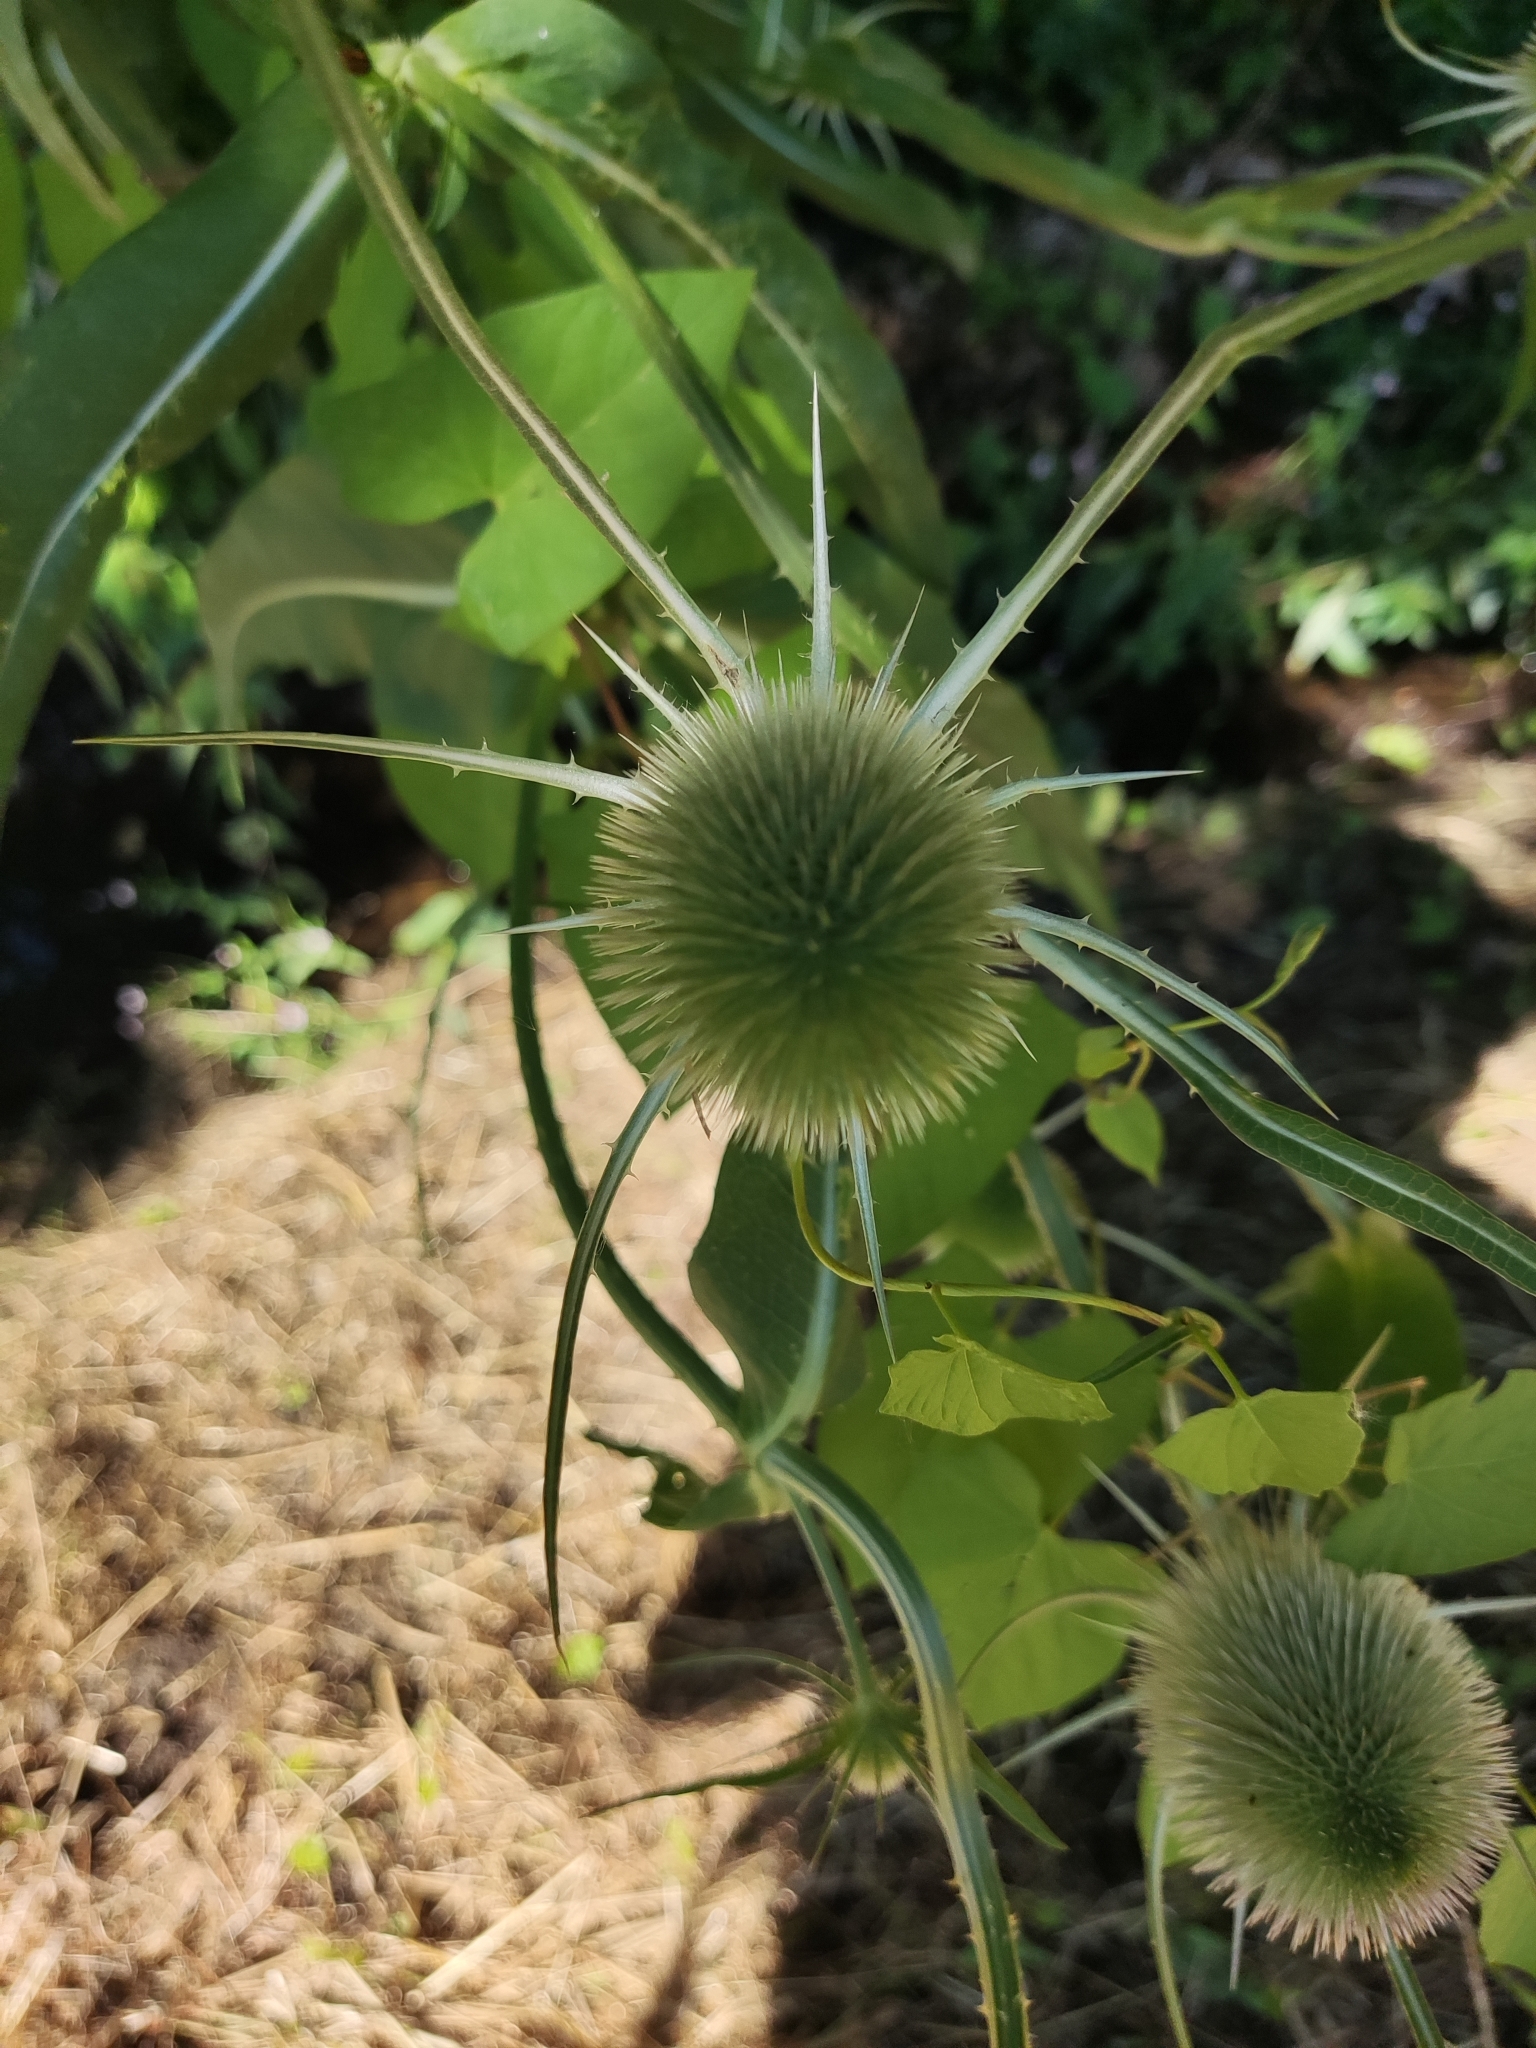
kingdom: Plantae
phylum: Tracheophyta
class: Magnoliopsida
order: Dipsacales
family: Caprifoliaceae
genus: Dipsacus
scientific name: Dipsacus fullonum
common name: Teasel
